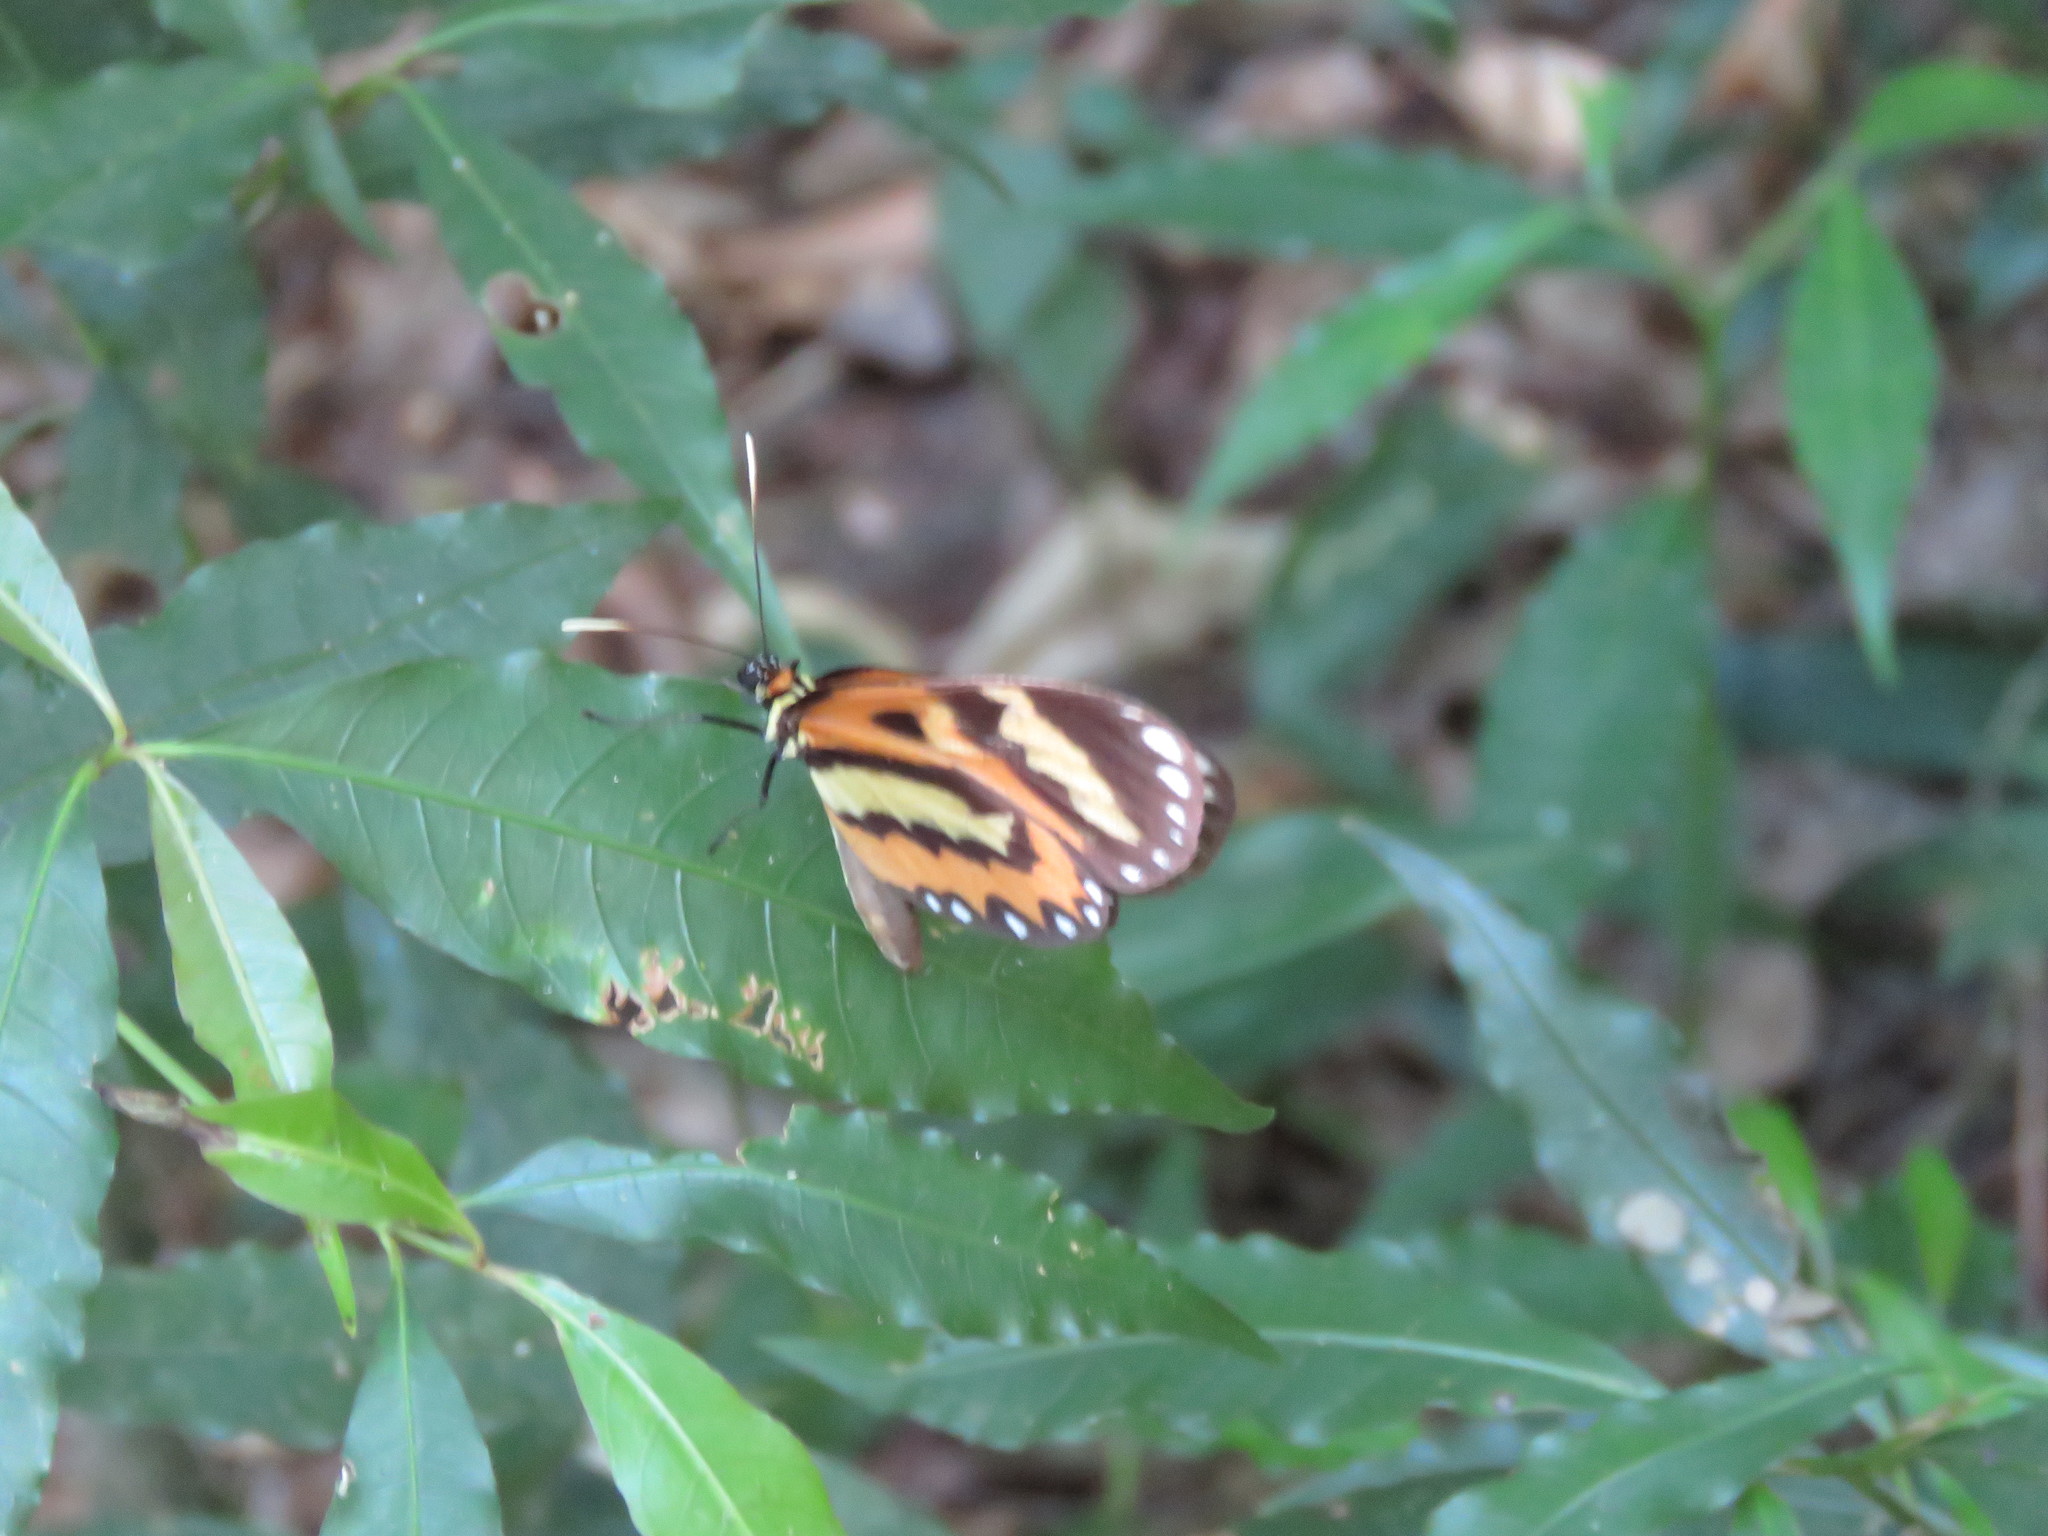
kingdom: Animalia
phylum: Arthropoda
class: Insecta
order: Lepidoptera
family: Nymphalidae
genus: Placidina
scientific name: Placidina euryanassa
